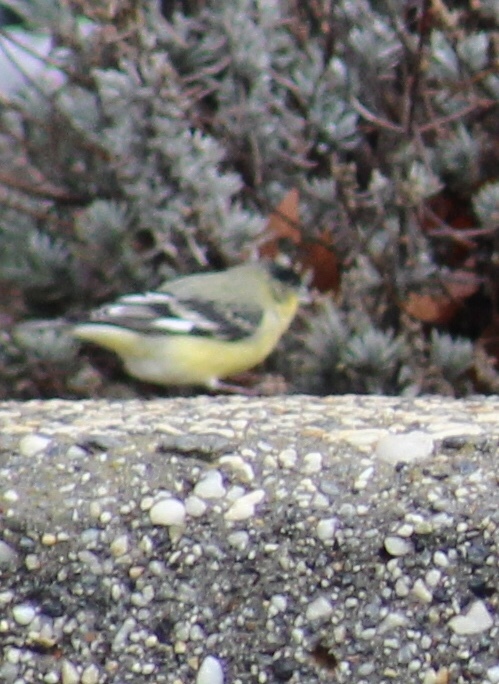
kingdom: Animalia
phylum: Chordata
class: Aves
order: Passeriformes
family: Fringillidae
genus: Spinus
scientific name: Spinus psaltria
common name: Lesser goldfinch
